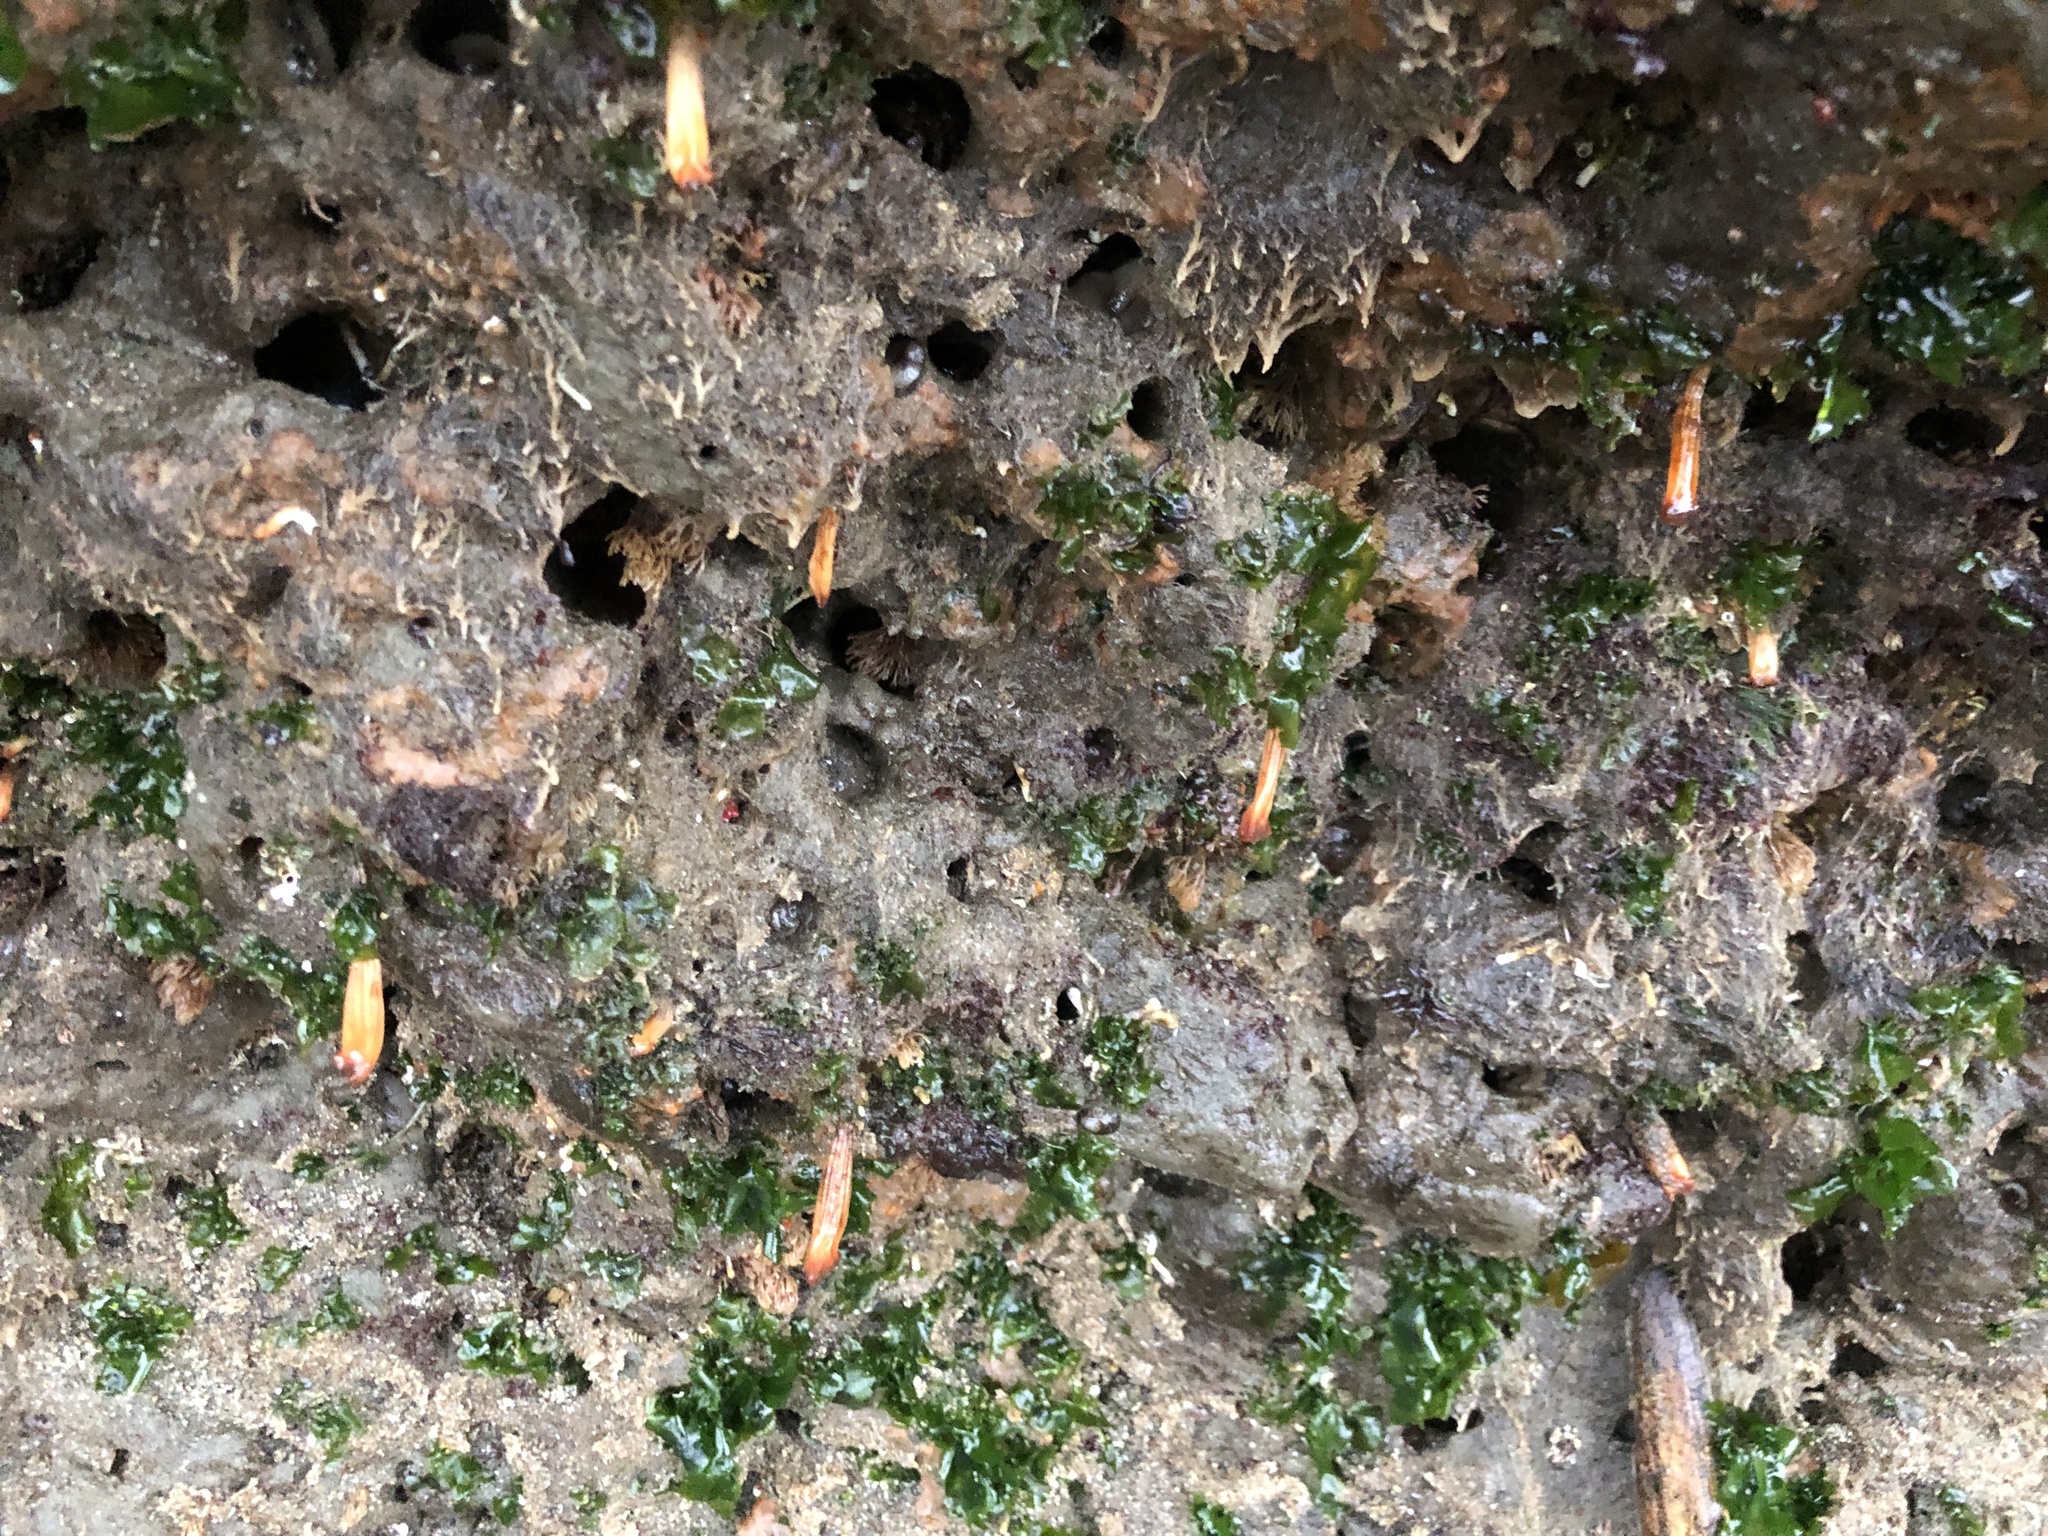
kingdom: Animalia
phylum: Chordata
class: Ascidiacea
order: Stolidobranchia
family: Styelidae
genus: Styela
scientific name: Styela montereyensis
